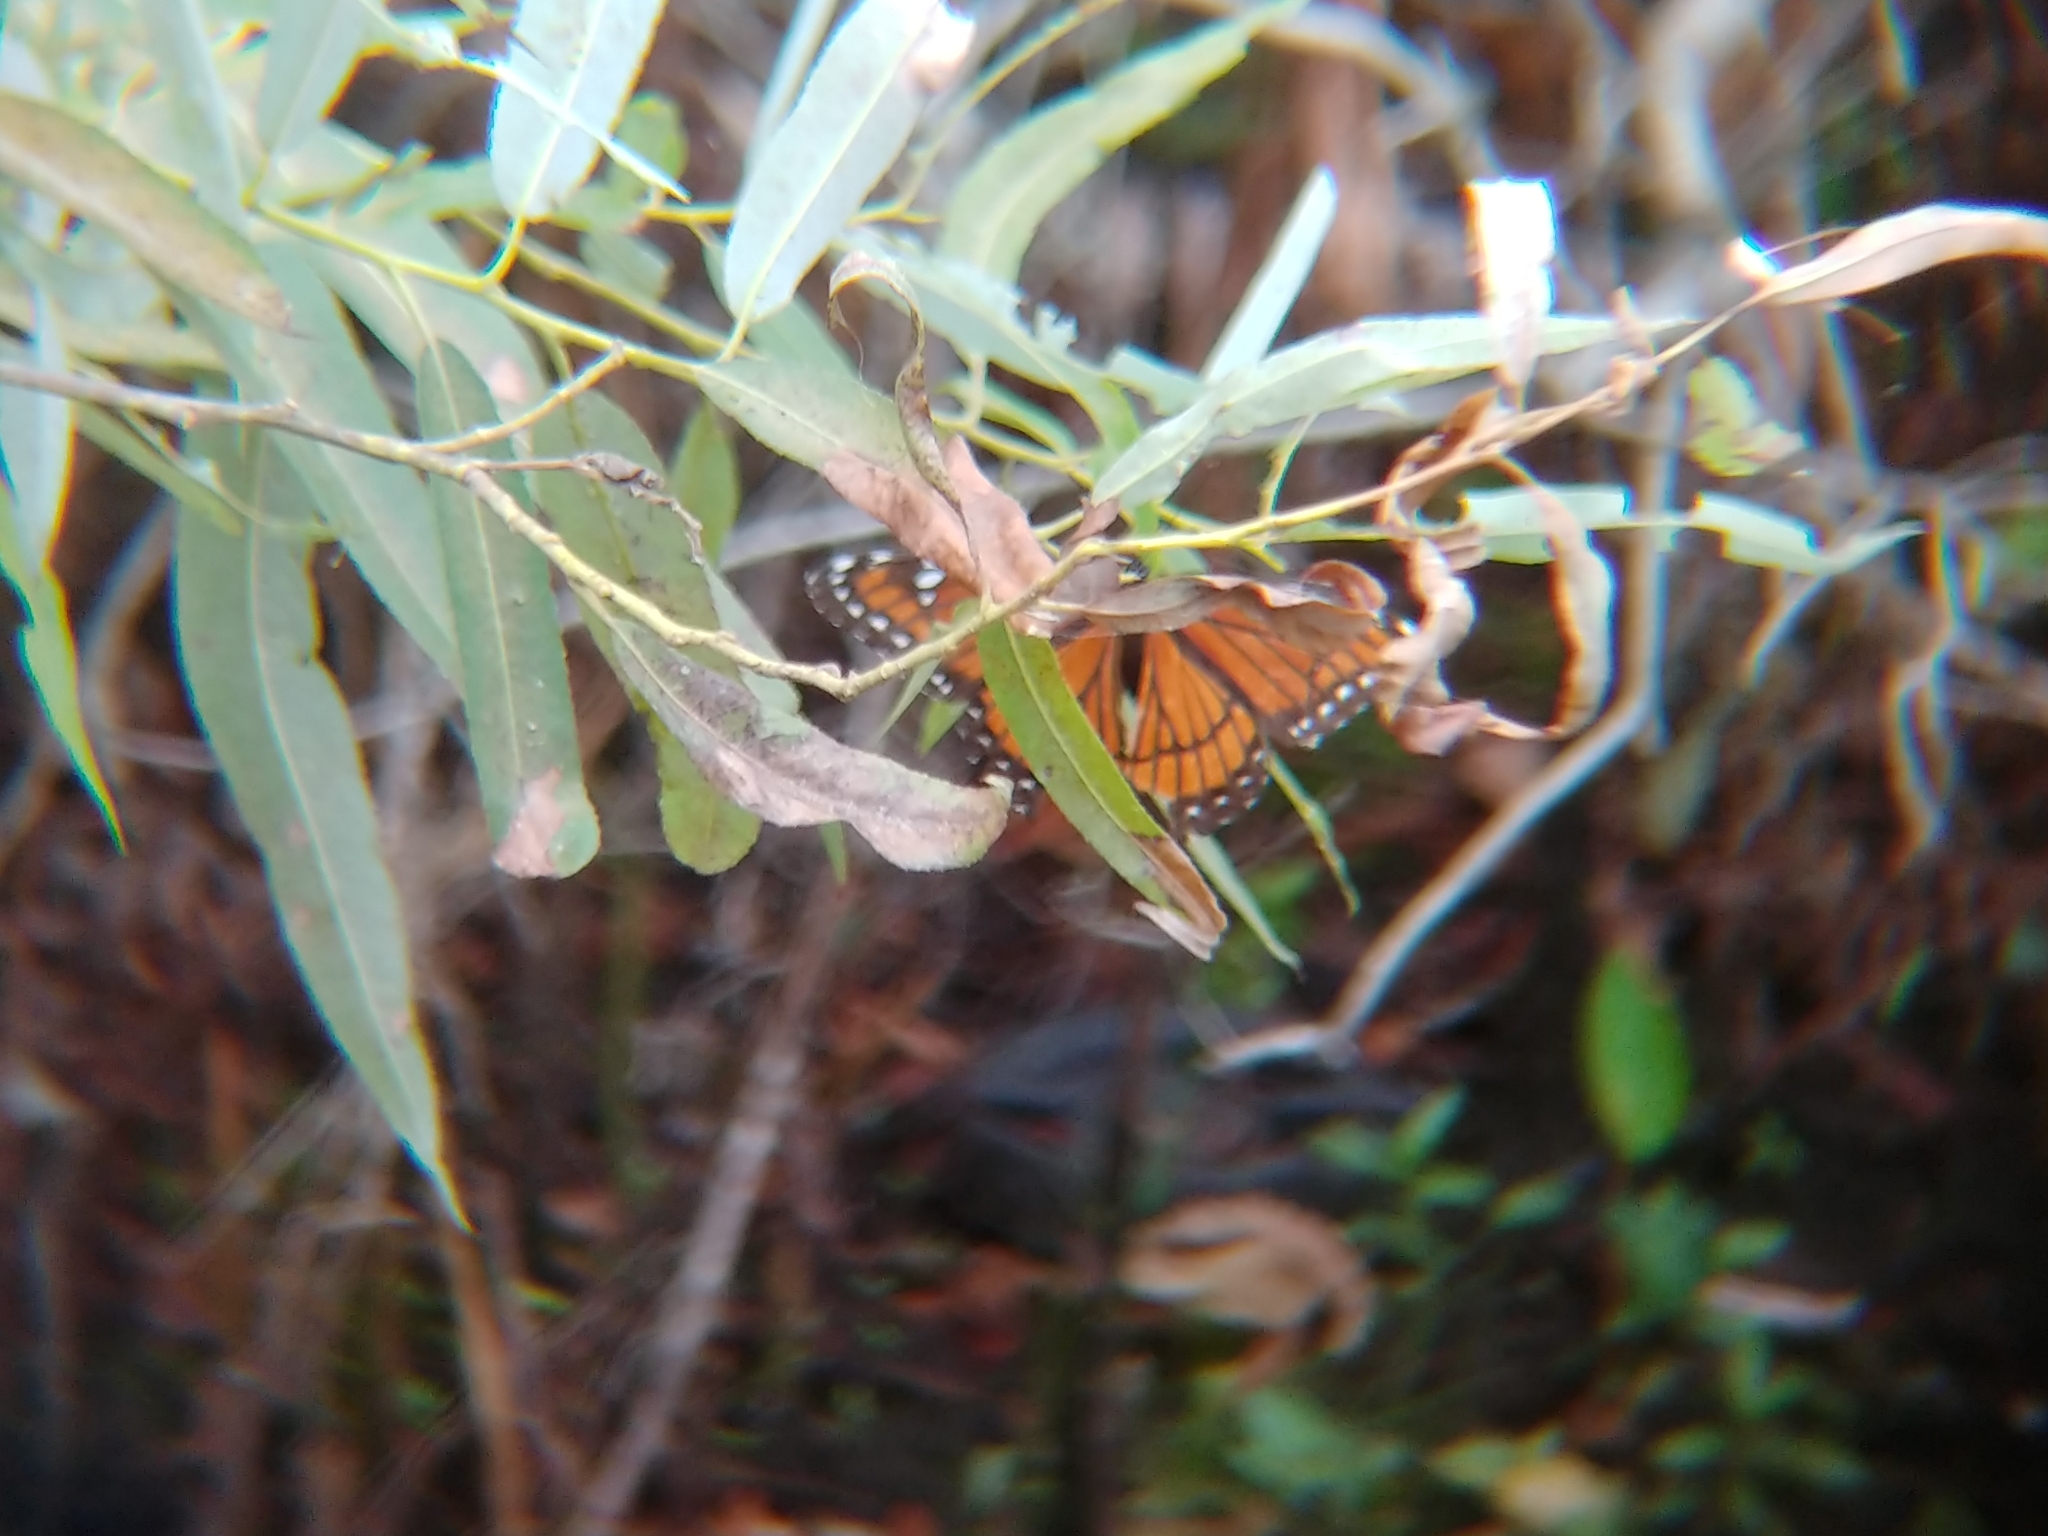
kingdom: Animalia
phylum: Arthropoda
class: Insecta
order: Lepidoptera
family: Nymphalidae
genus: Limenitis
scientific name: Limenitis archippus
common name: Viceroy
